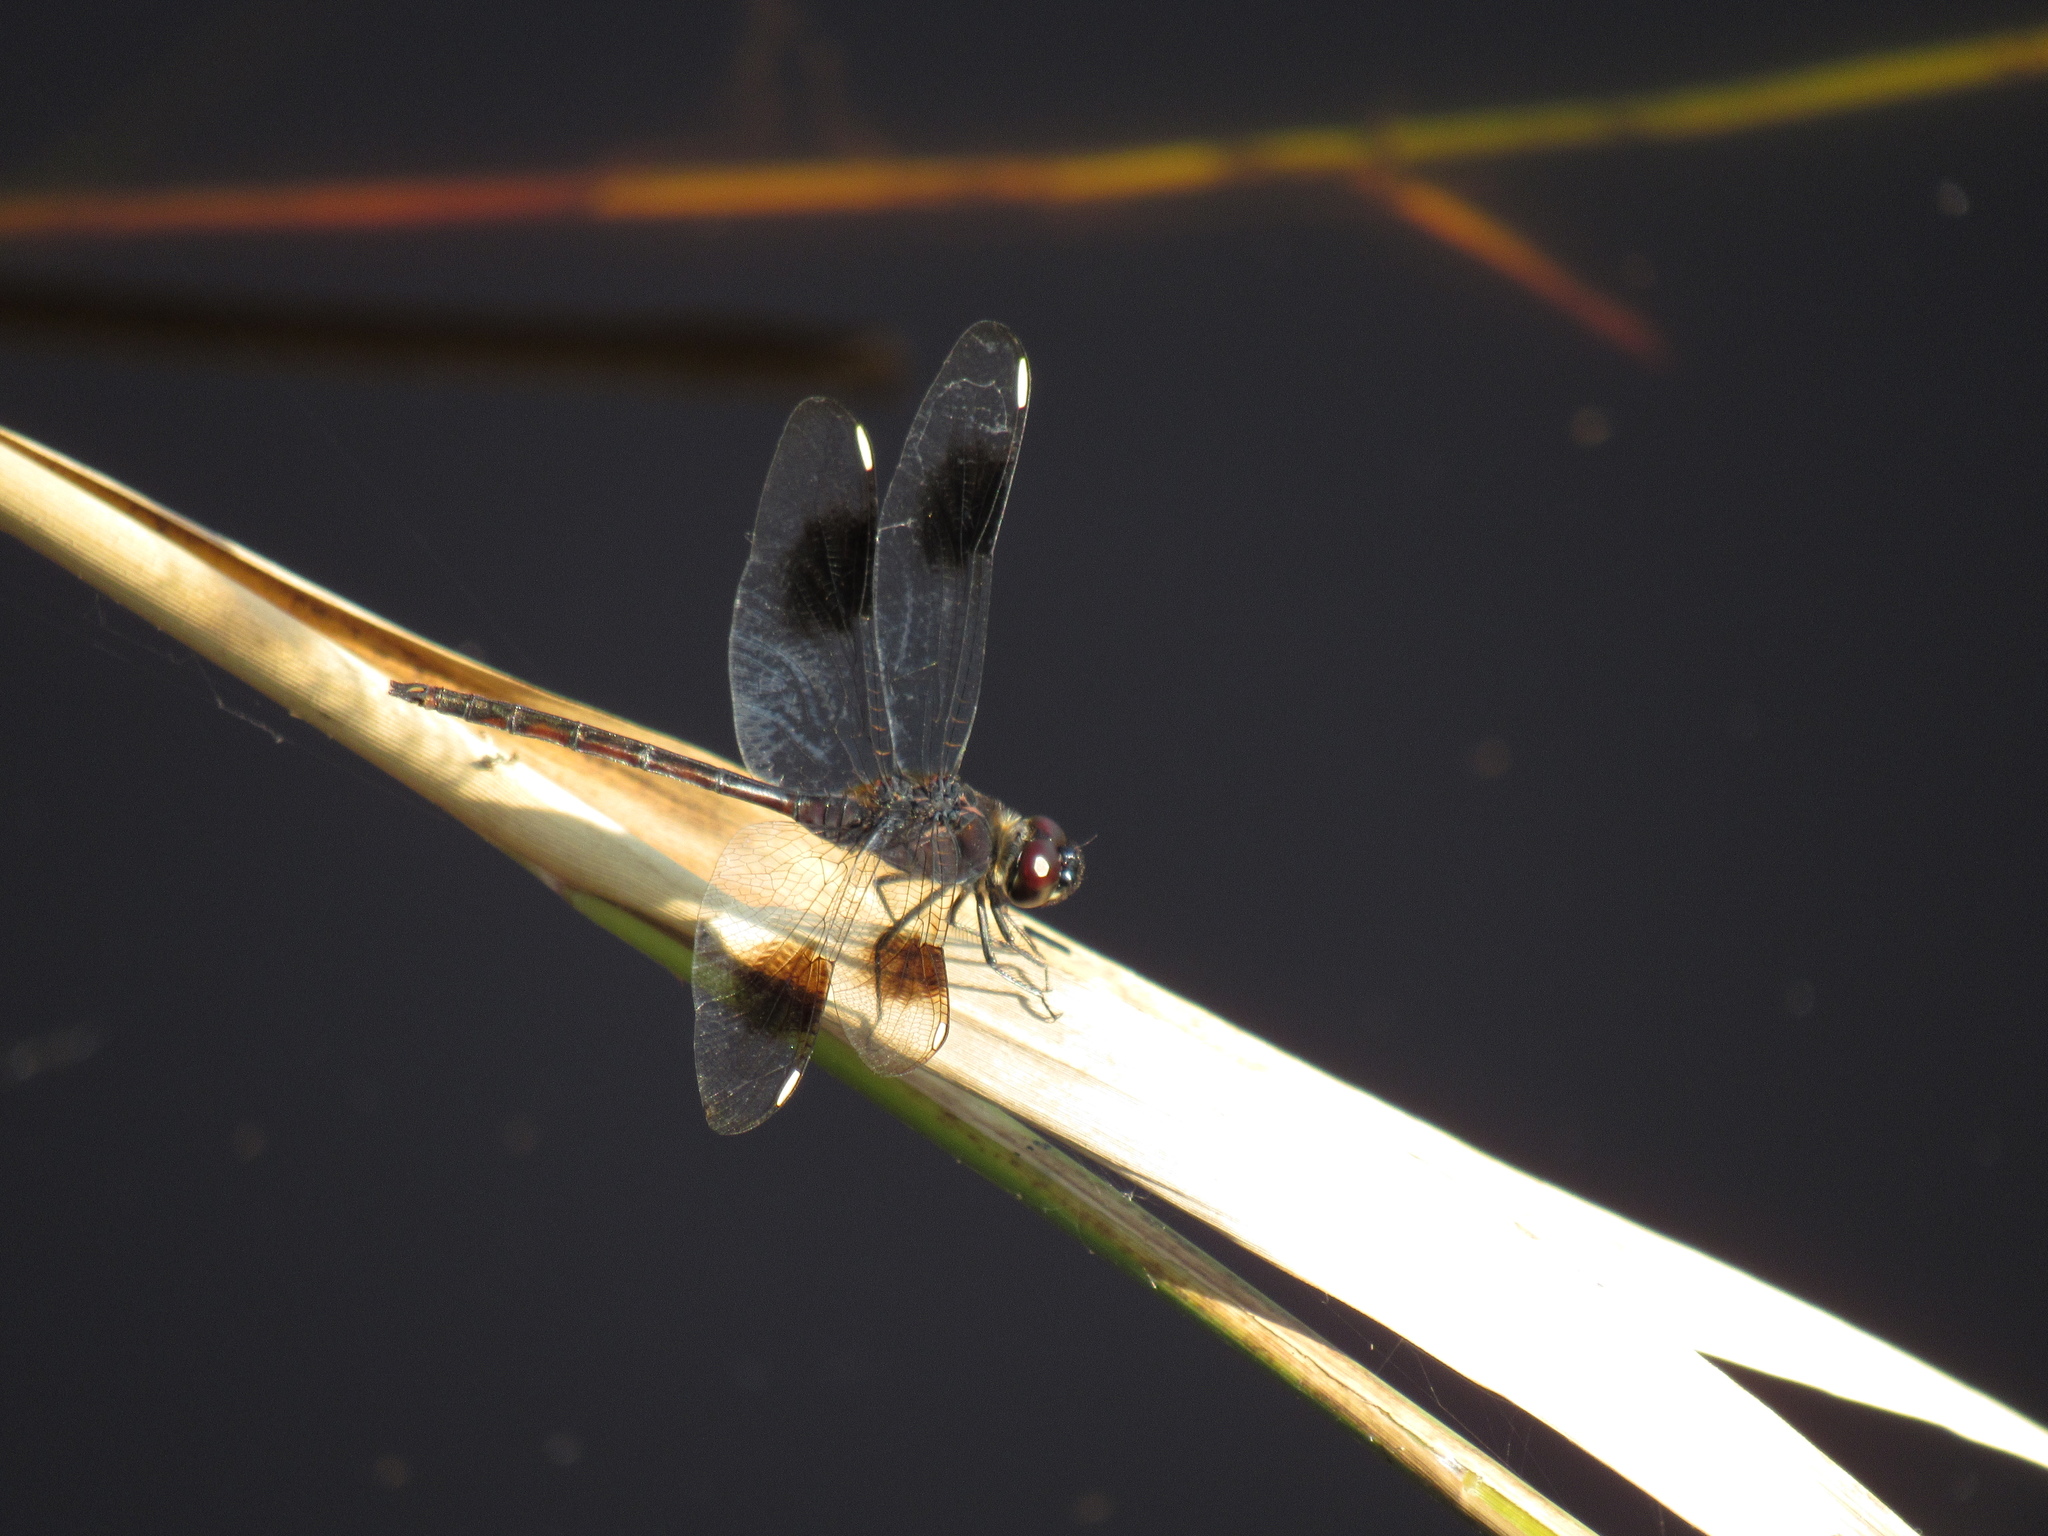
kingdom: Animalia
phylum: Arthropoda
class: Insecta
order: Odonata
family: Libellulidae
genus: Brachymesia
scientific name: Brachymesia gravida
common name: Four-spotted pennant
